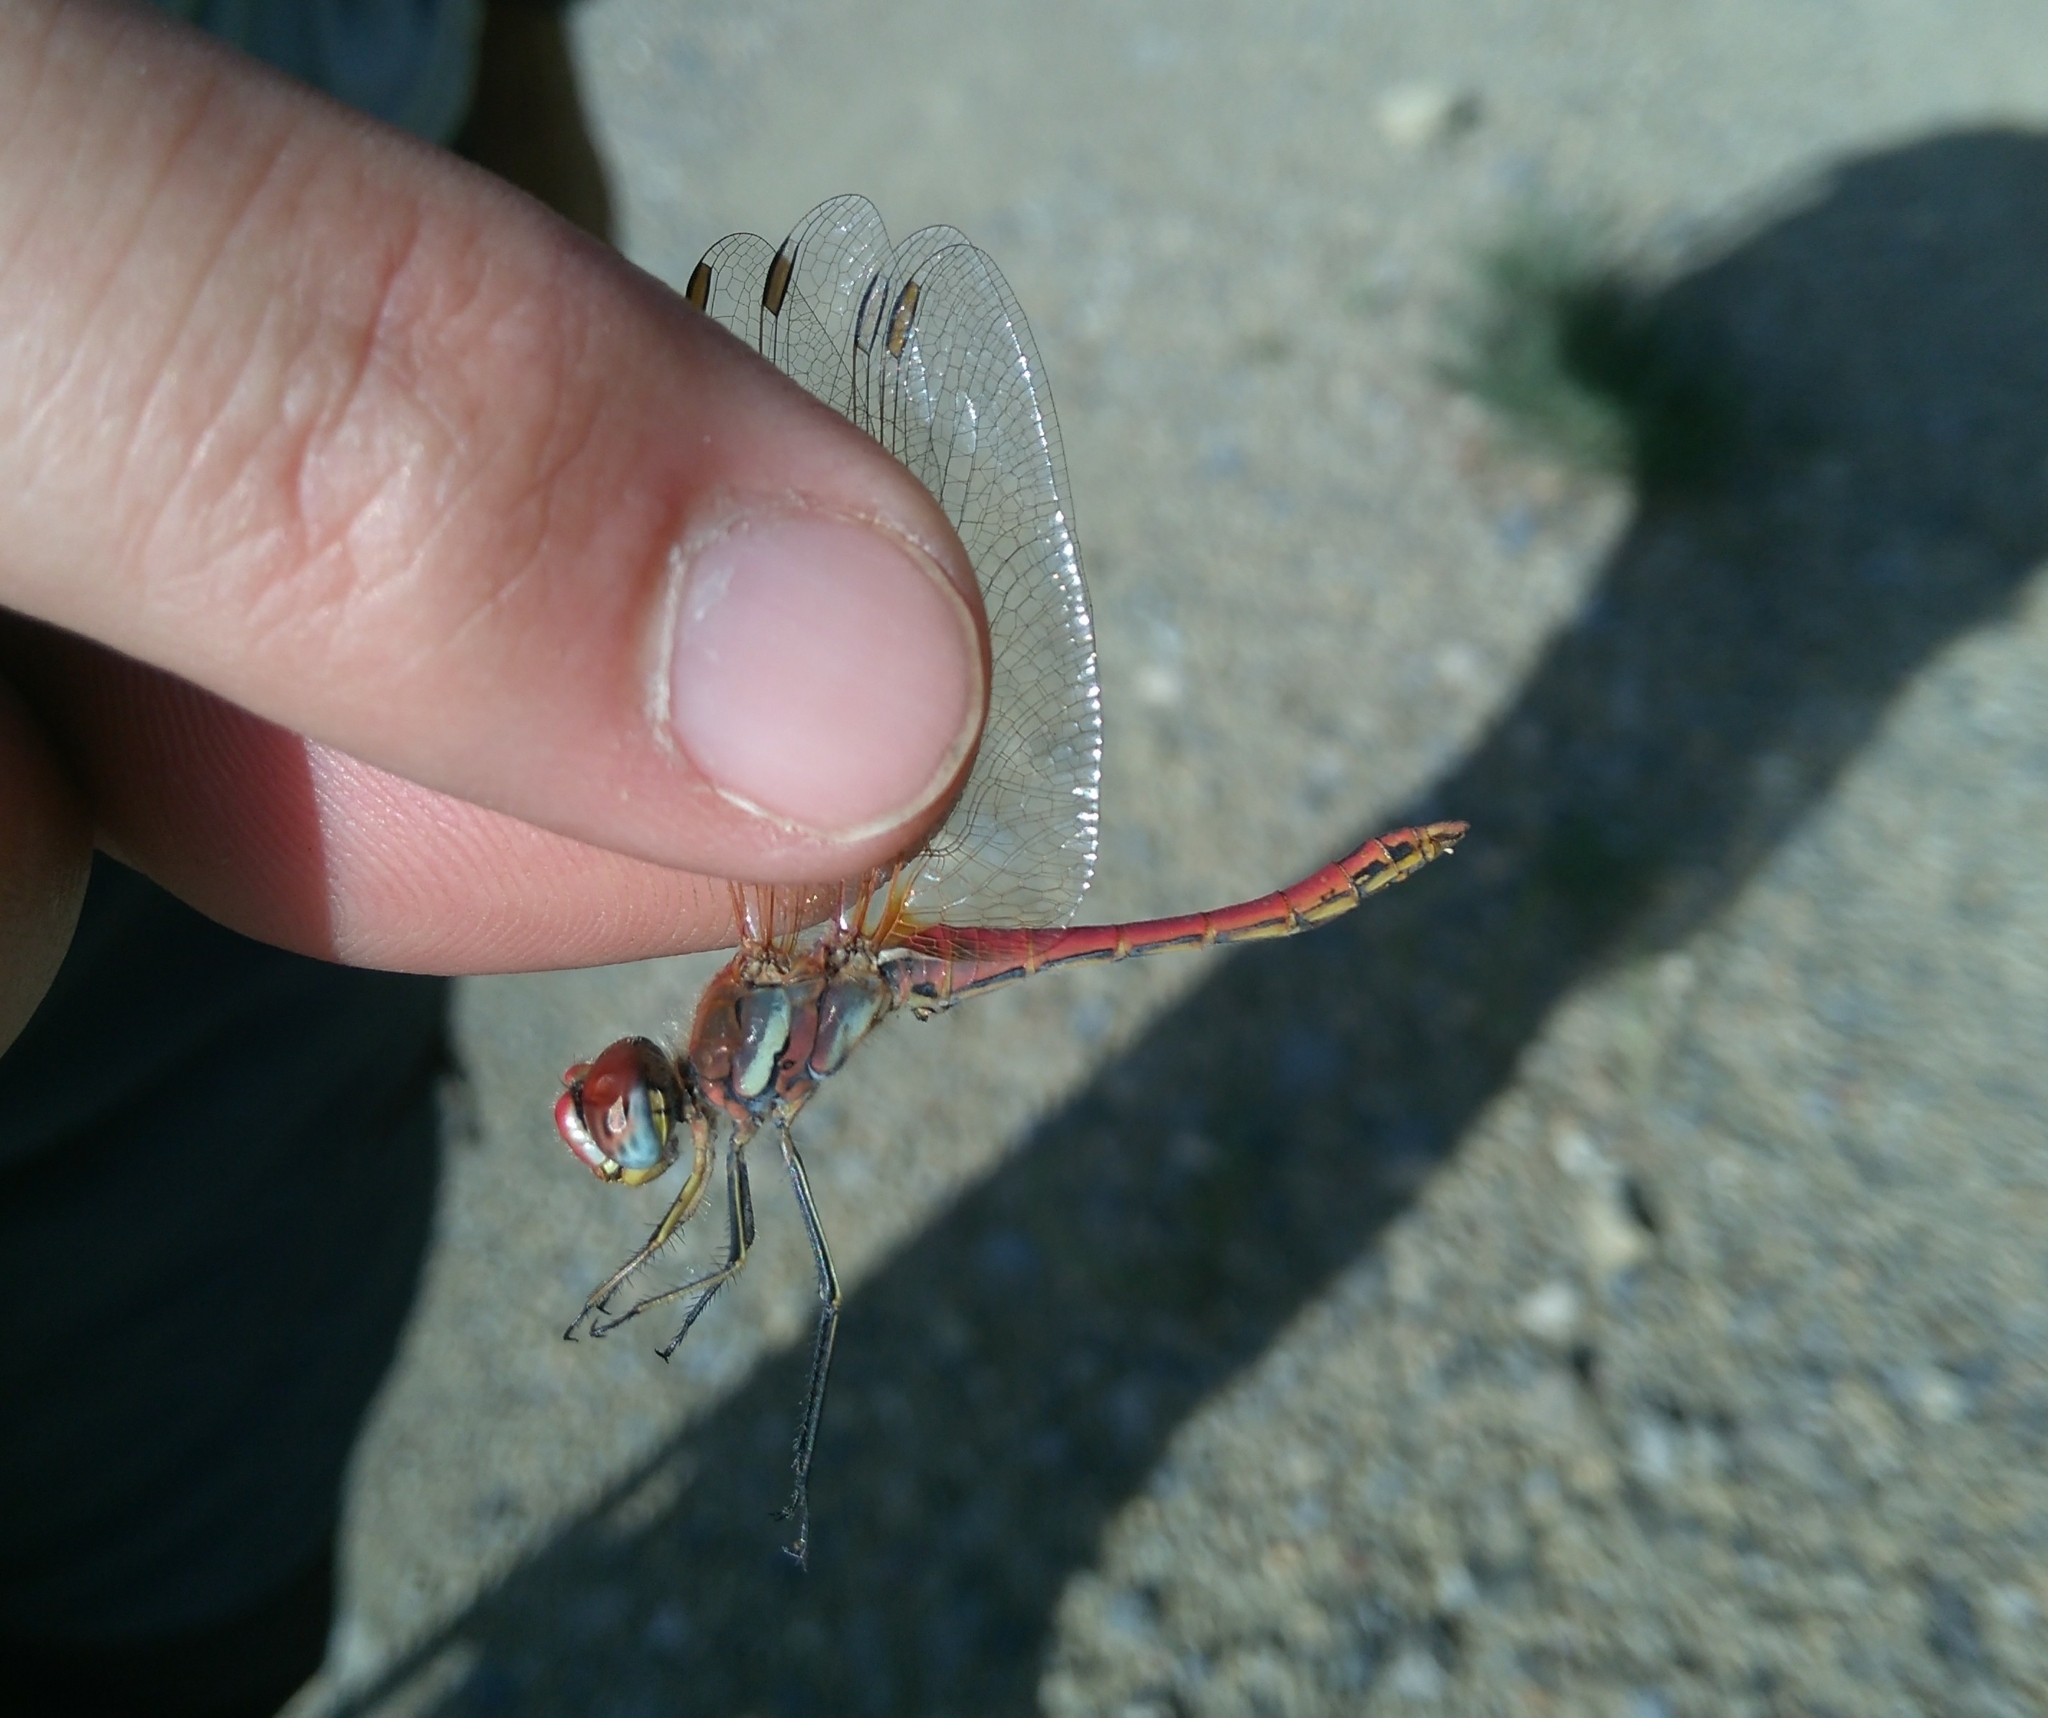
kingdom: Animalia
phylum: Arthropoda
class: Insecta
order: Odonata
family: Libellulidae
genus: Sympetrum
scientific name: Sympetrum fonscolombii
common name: Red-veined darter
